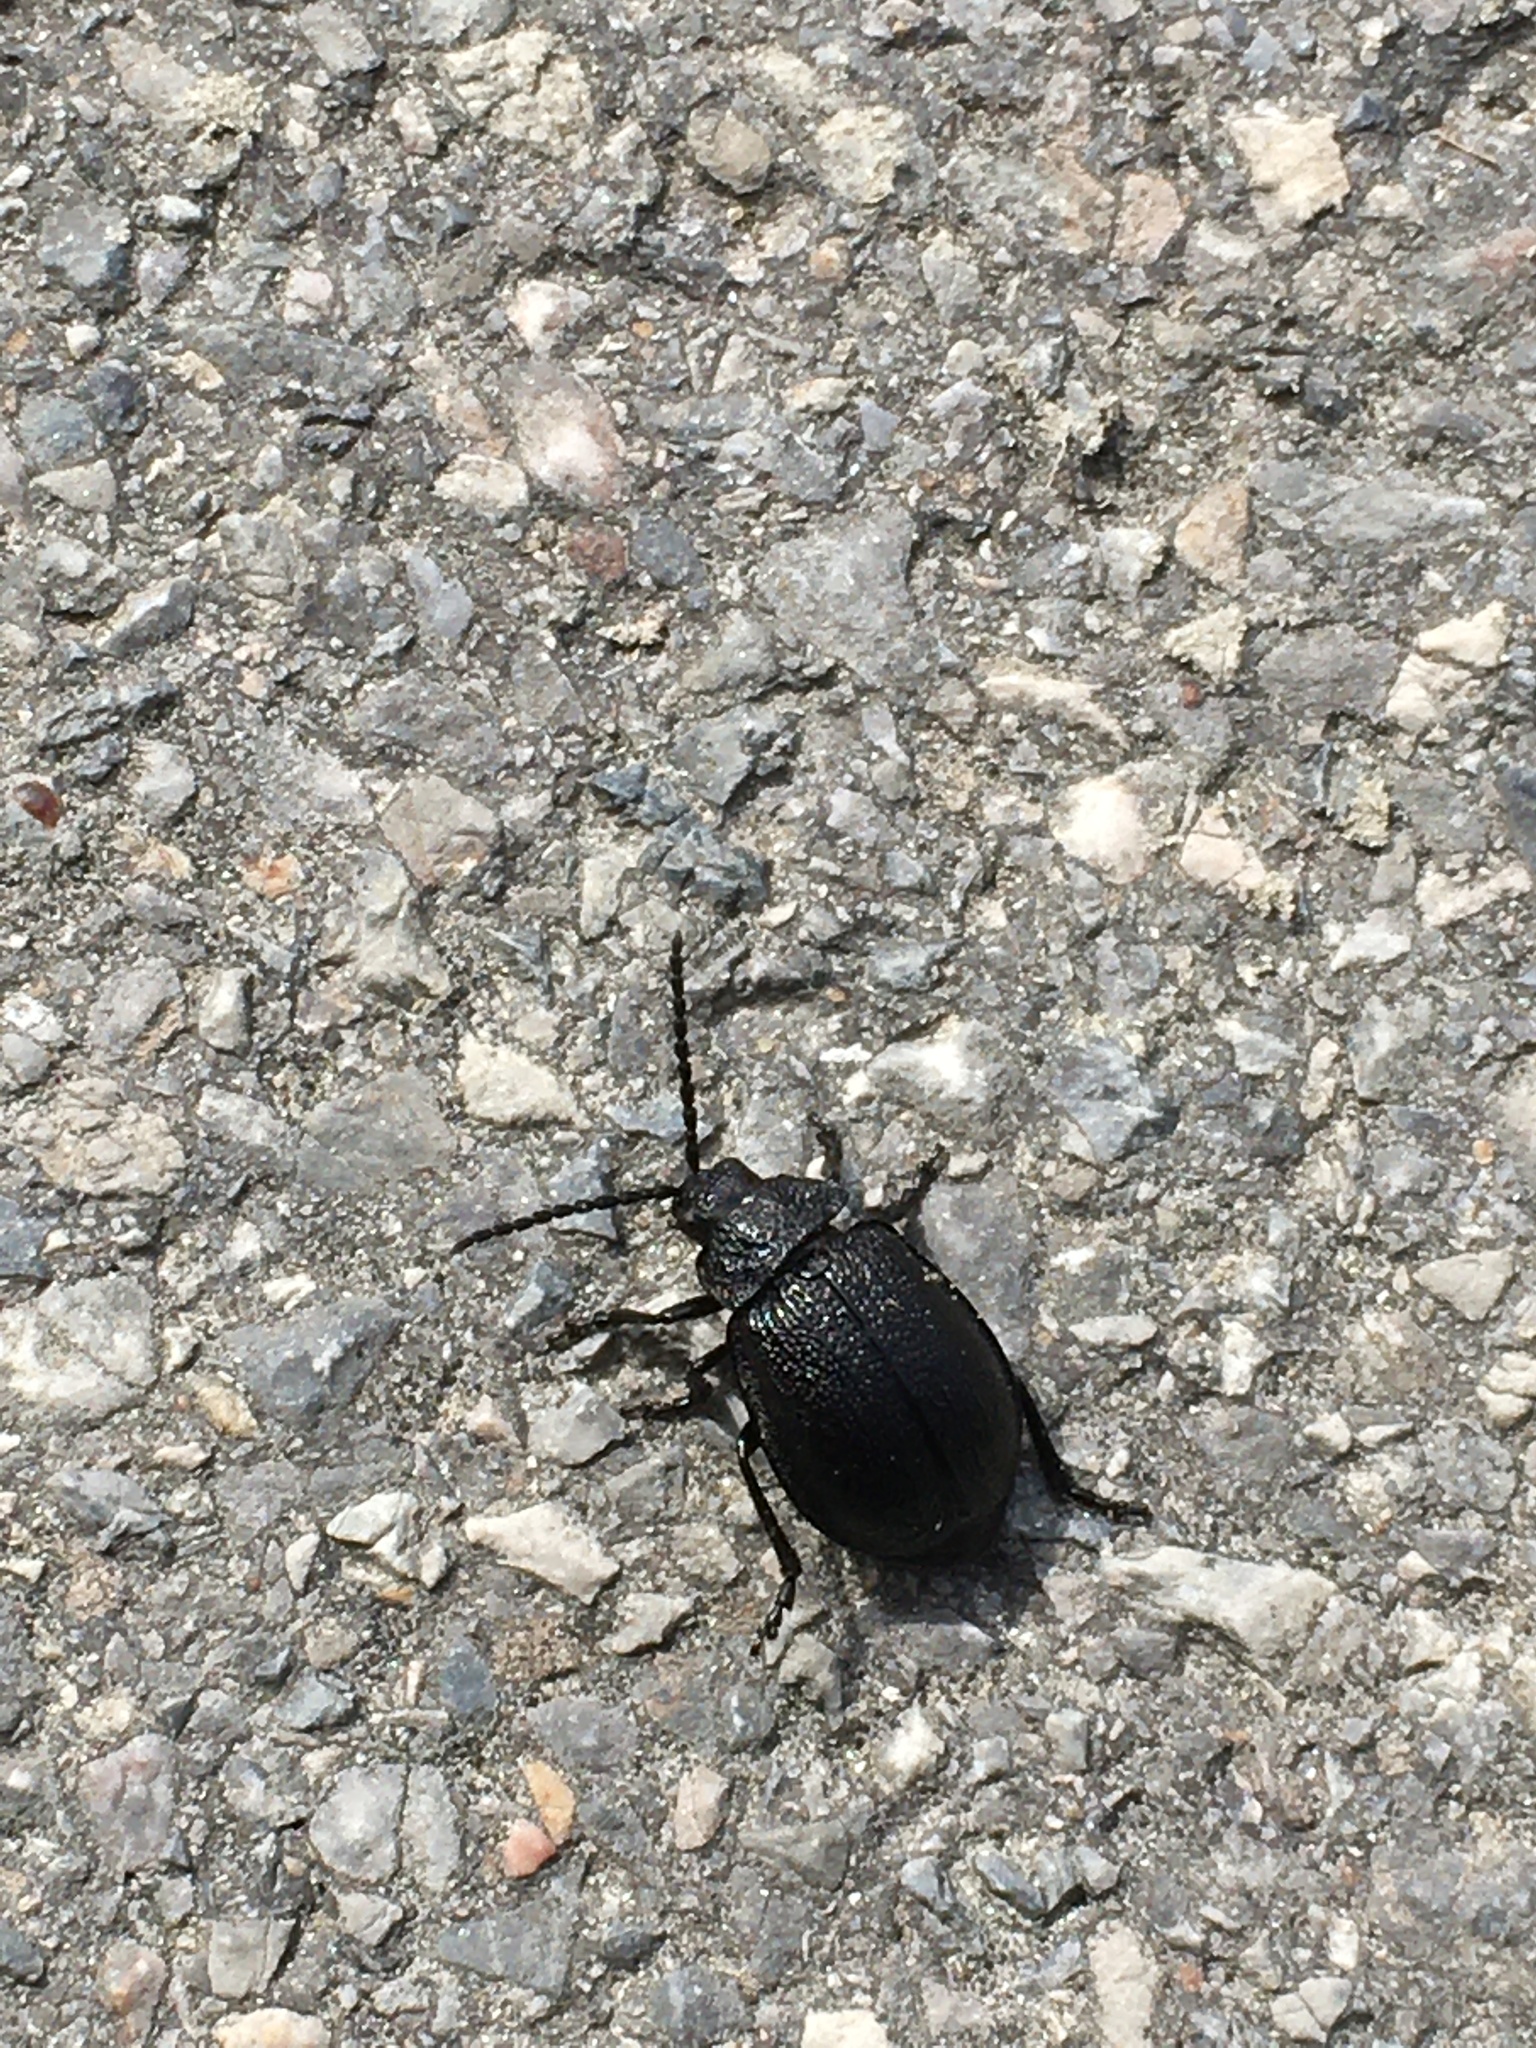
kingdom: Animalia
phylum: Arthropoda
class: Insecta
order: Coleoptera
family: Chrysomelidae
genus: Galeruca
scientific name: Galeruca tanaceti
